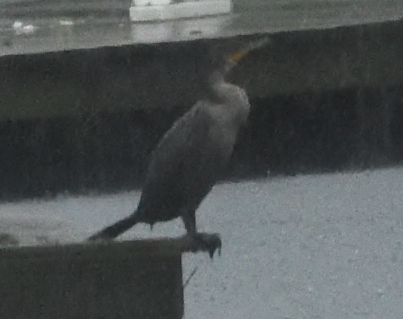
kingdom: Animalia
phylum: Chordata
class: Aves
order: Suliformes
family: Phalacrocoracidae
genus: Phalacrocorax
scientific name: Phalacrocorax auritus
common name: Double-crested cormorant
